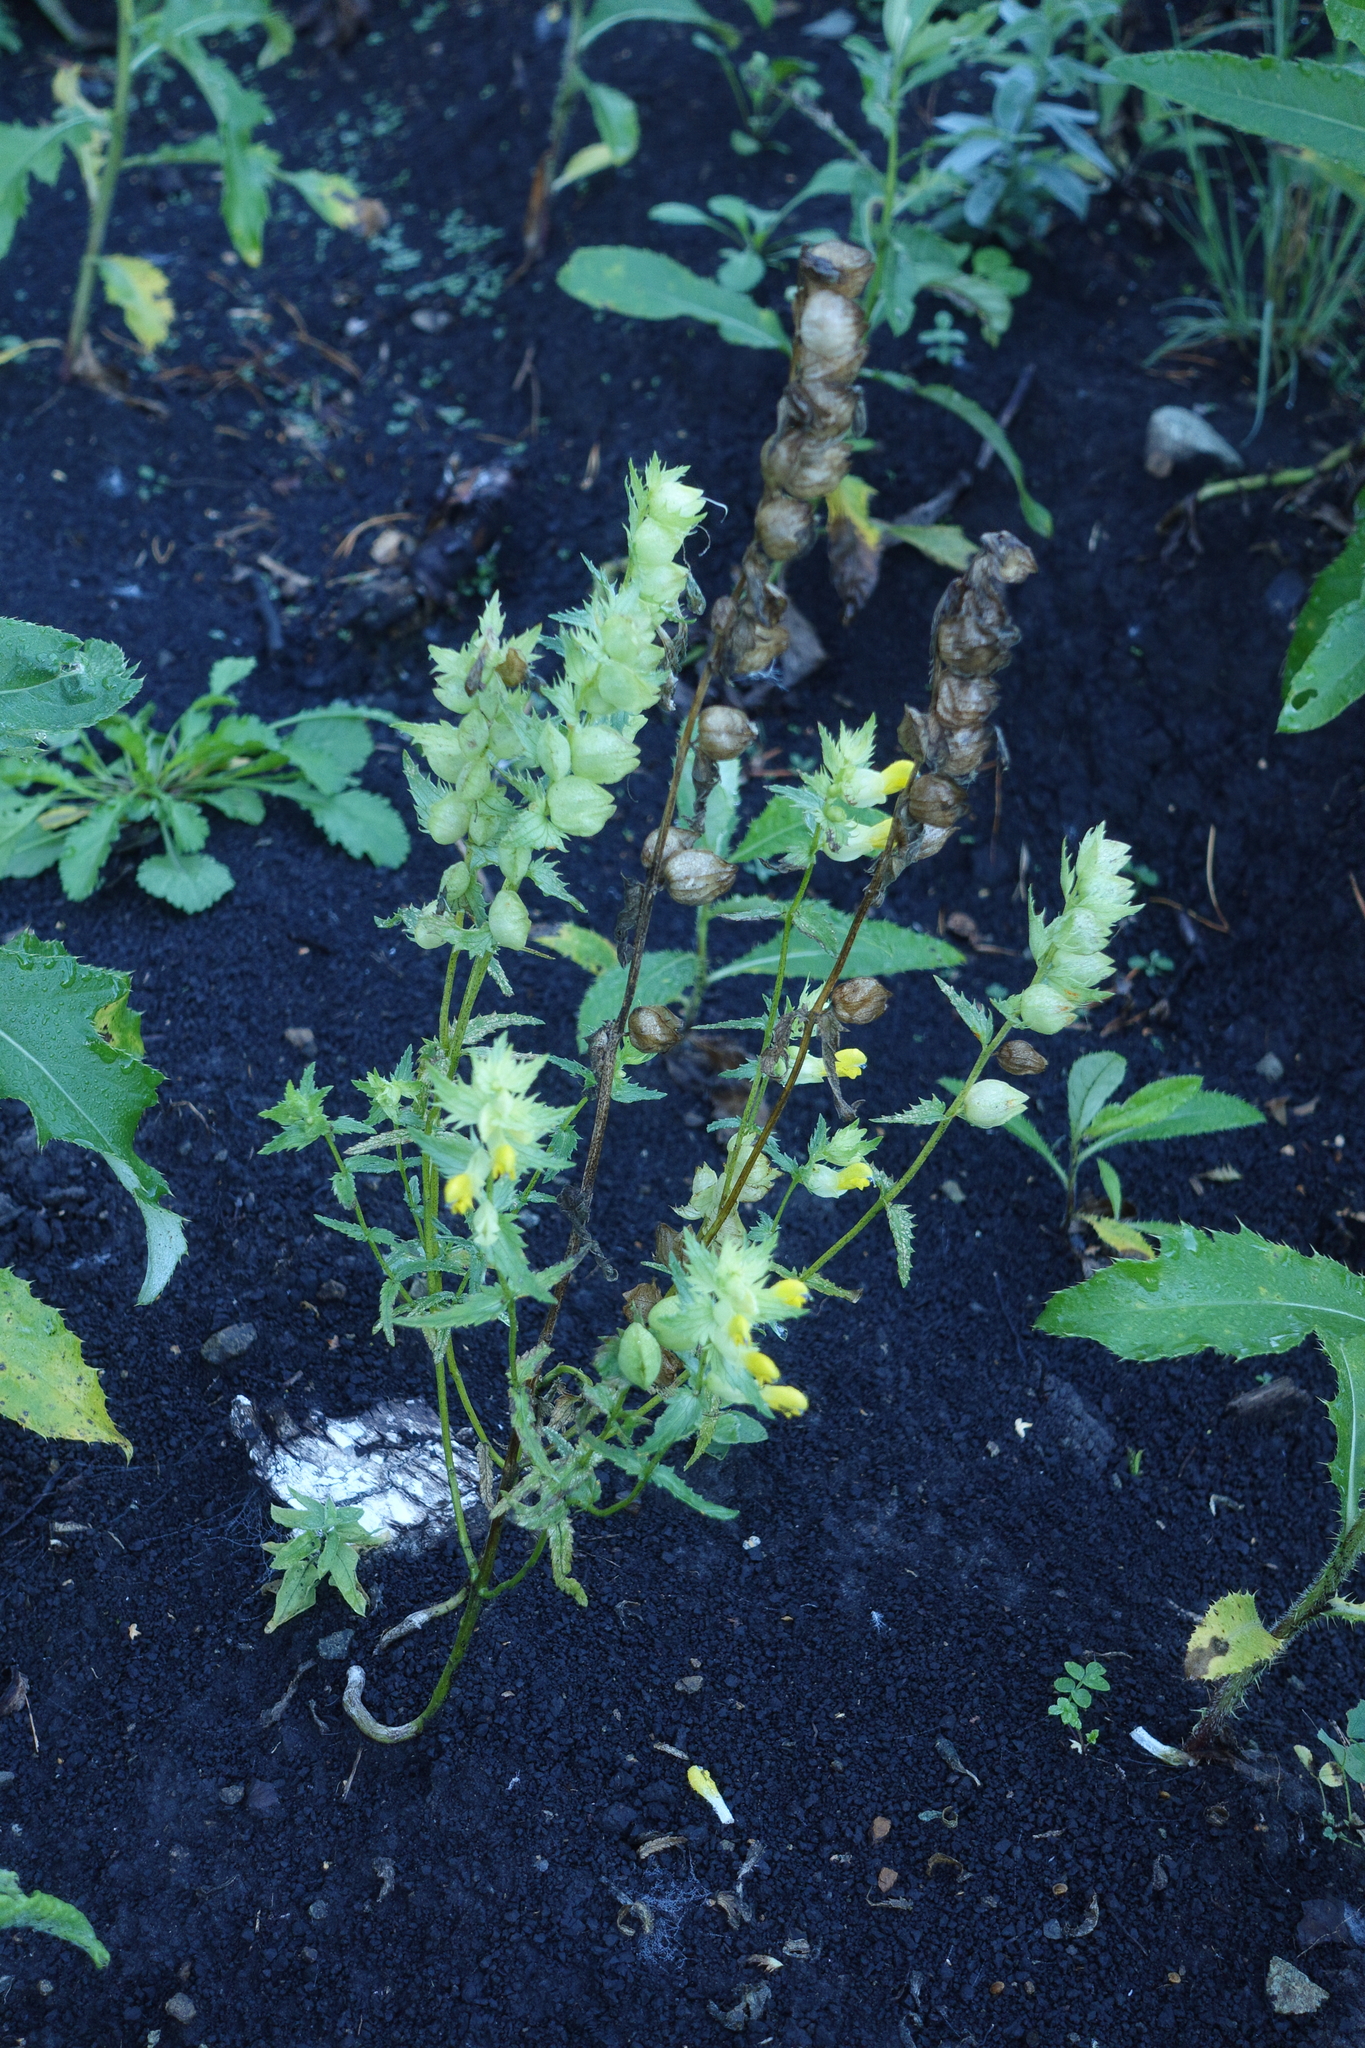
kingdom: Plantae
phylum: Tracheophyta
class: Magnoliopsida
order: Lamiales
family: Orobanchaceae
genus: Rhinanthus
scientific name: Rhinanthus serotinus
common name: Late-flowering yellow rattle
